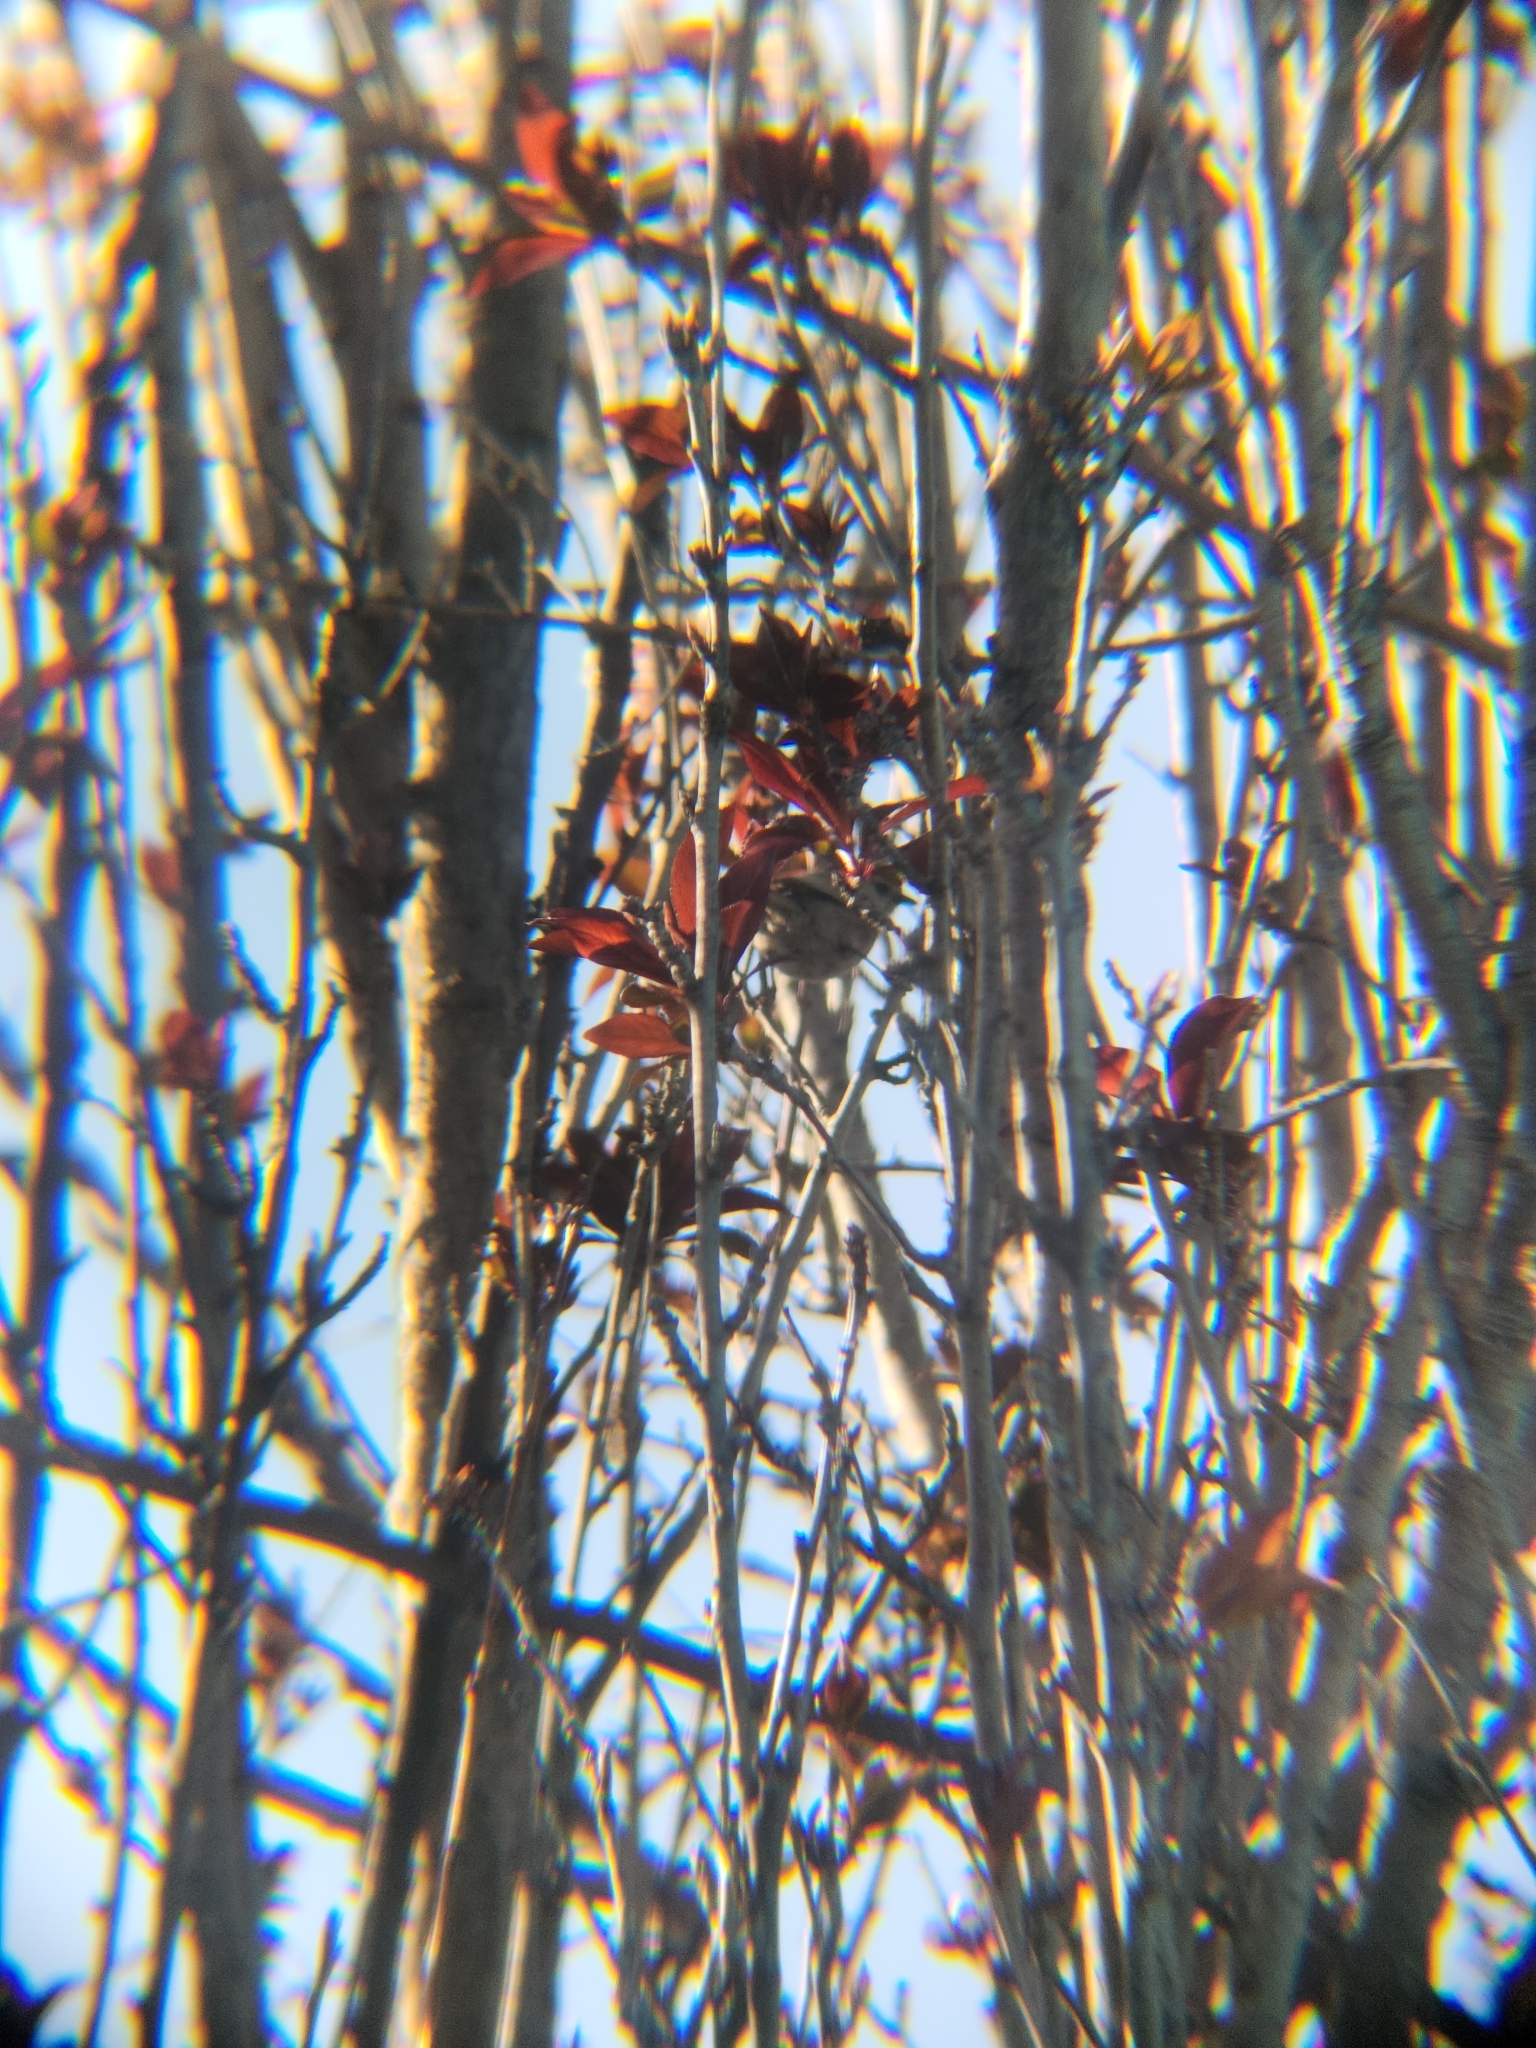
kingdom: Animalia
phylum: Chordata
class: Aves
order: Passeriformes
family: Aegithalidae
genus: Psaltriparus
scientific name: Psaltriparus minimus
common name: American bushtit
